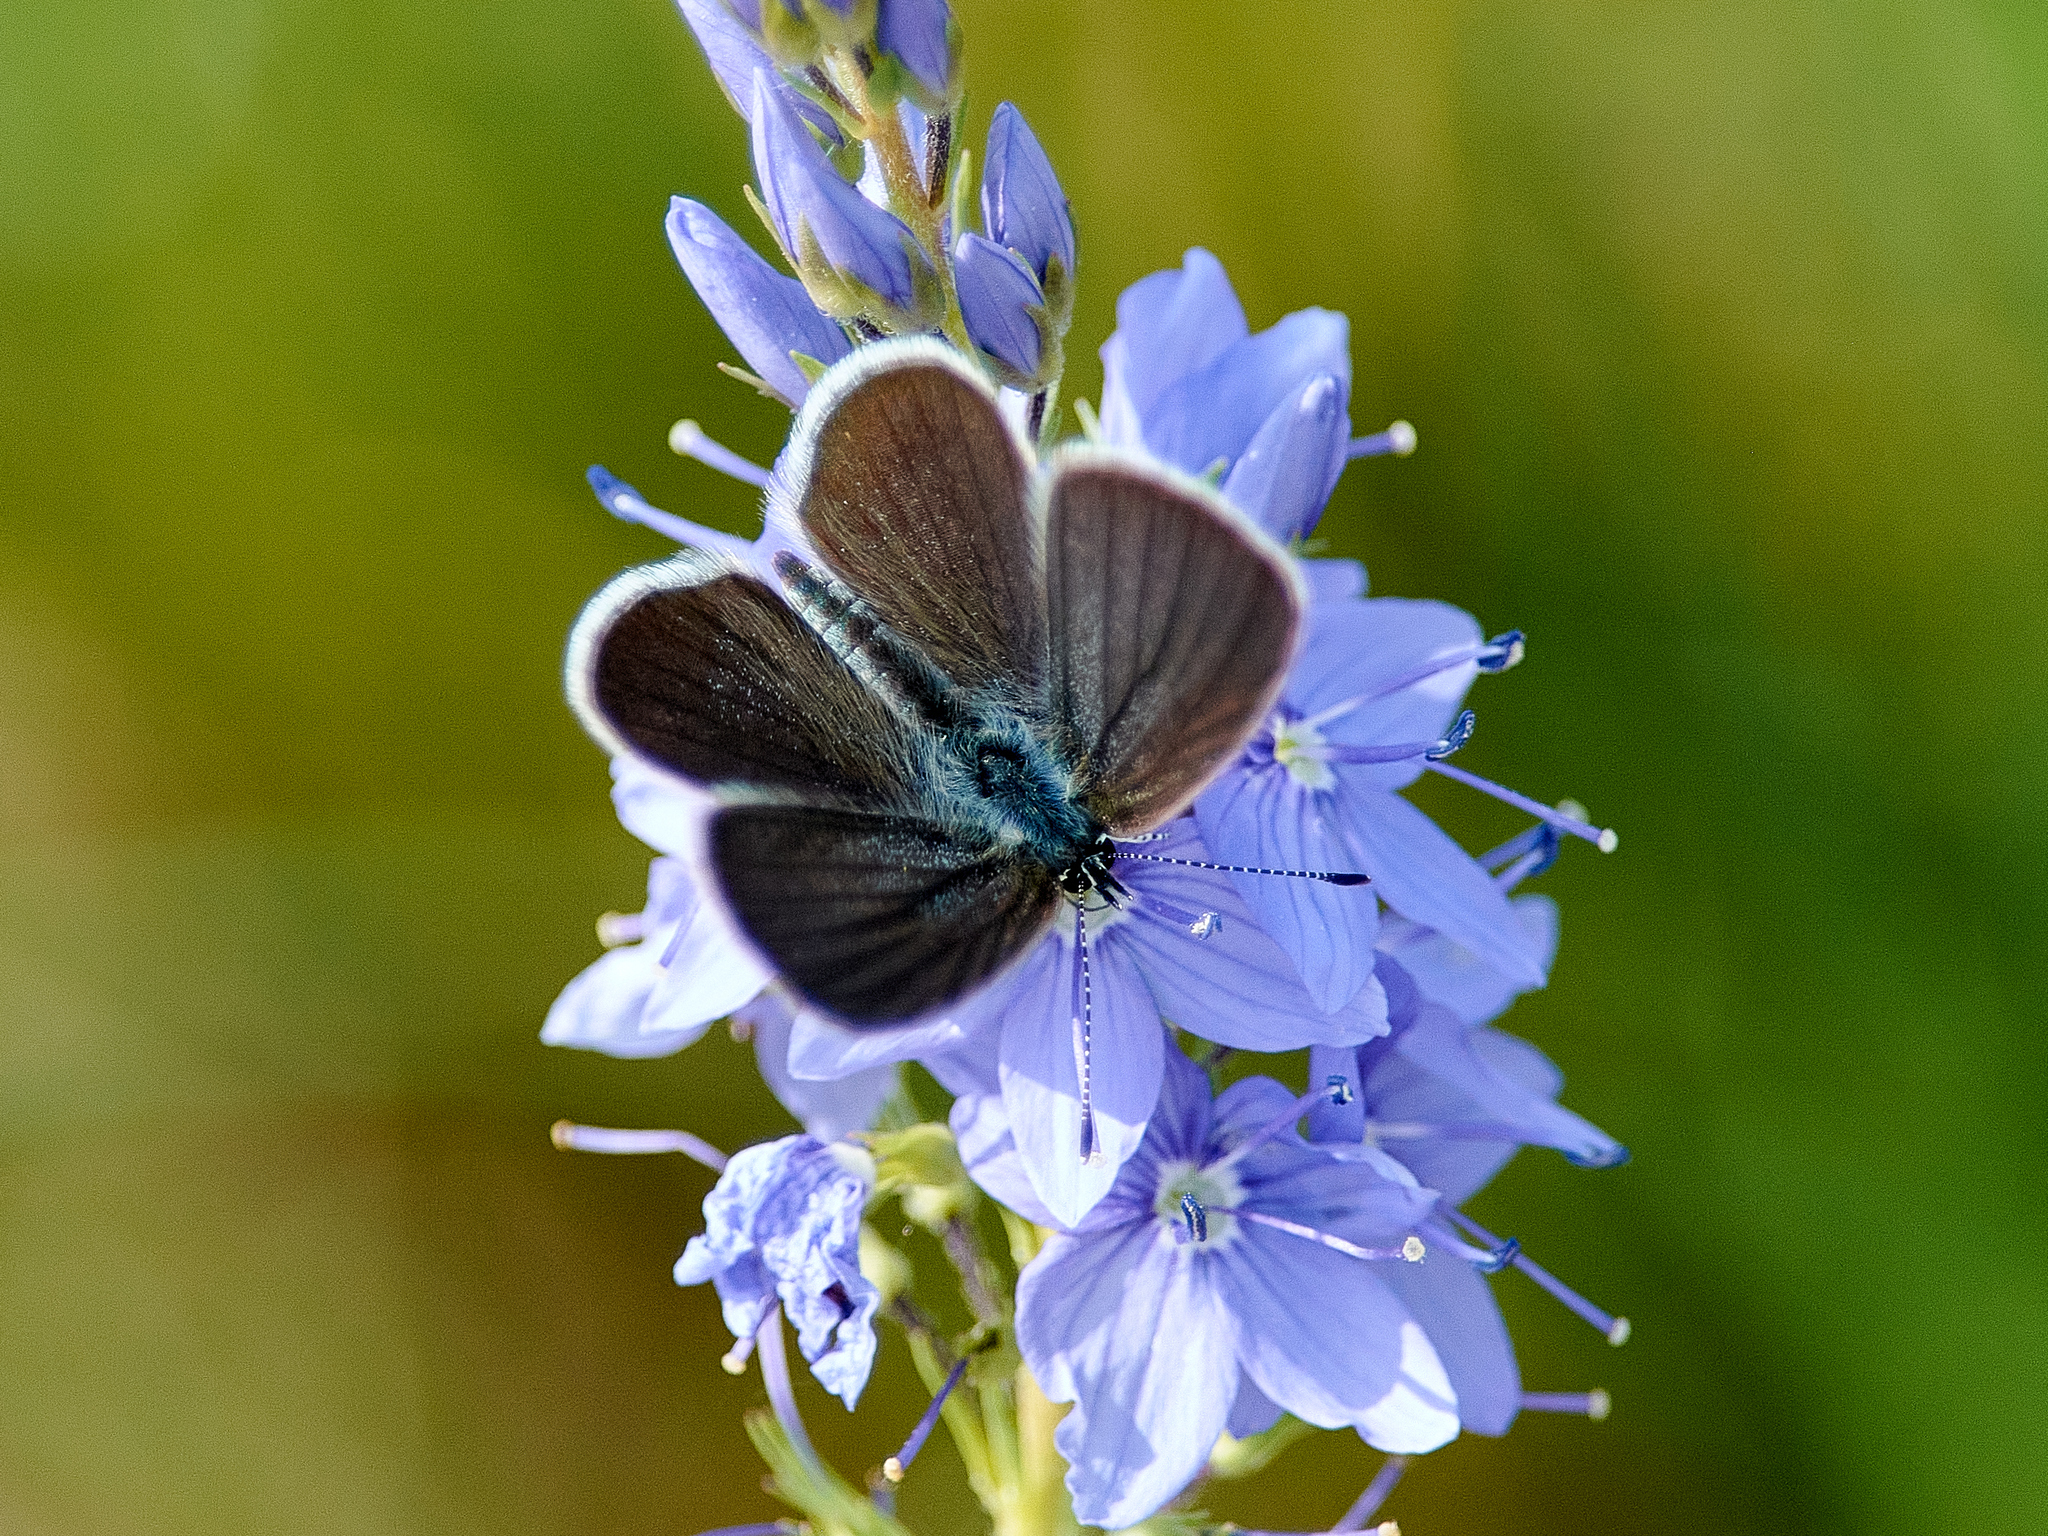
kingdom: Animalia
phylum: Arthropoda
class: Insecta
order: Lepidoptera
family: Lycaenidae
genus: Cupido
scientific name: Cupido minimus
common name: Small blue
